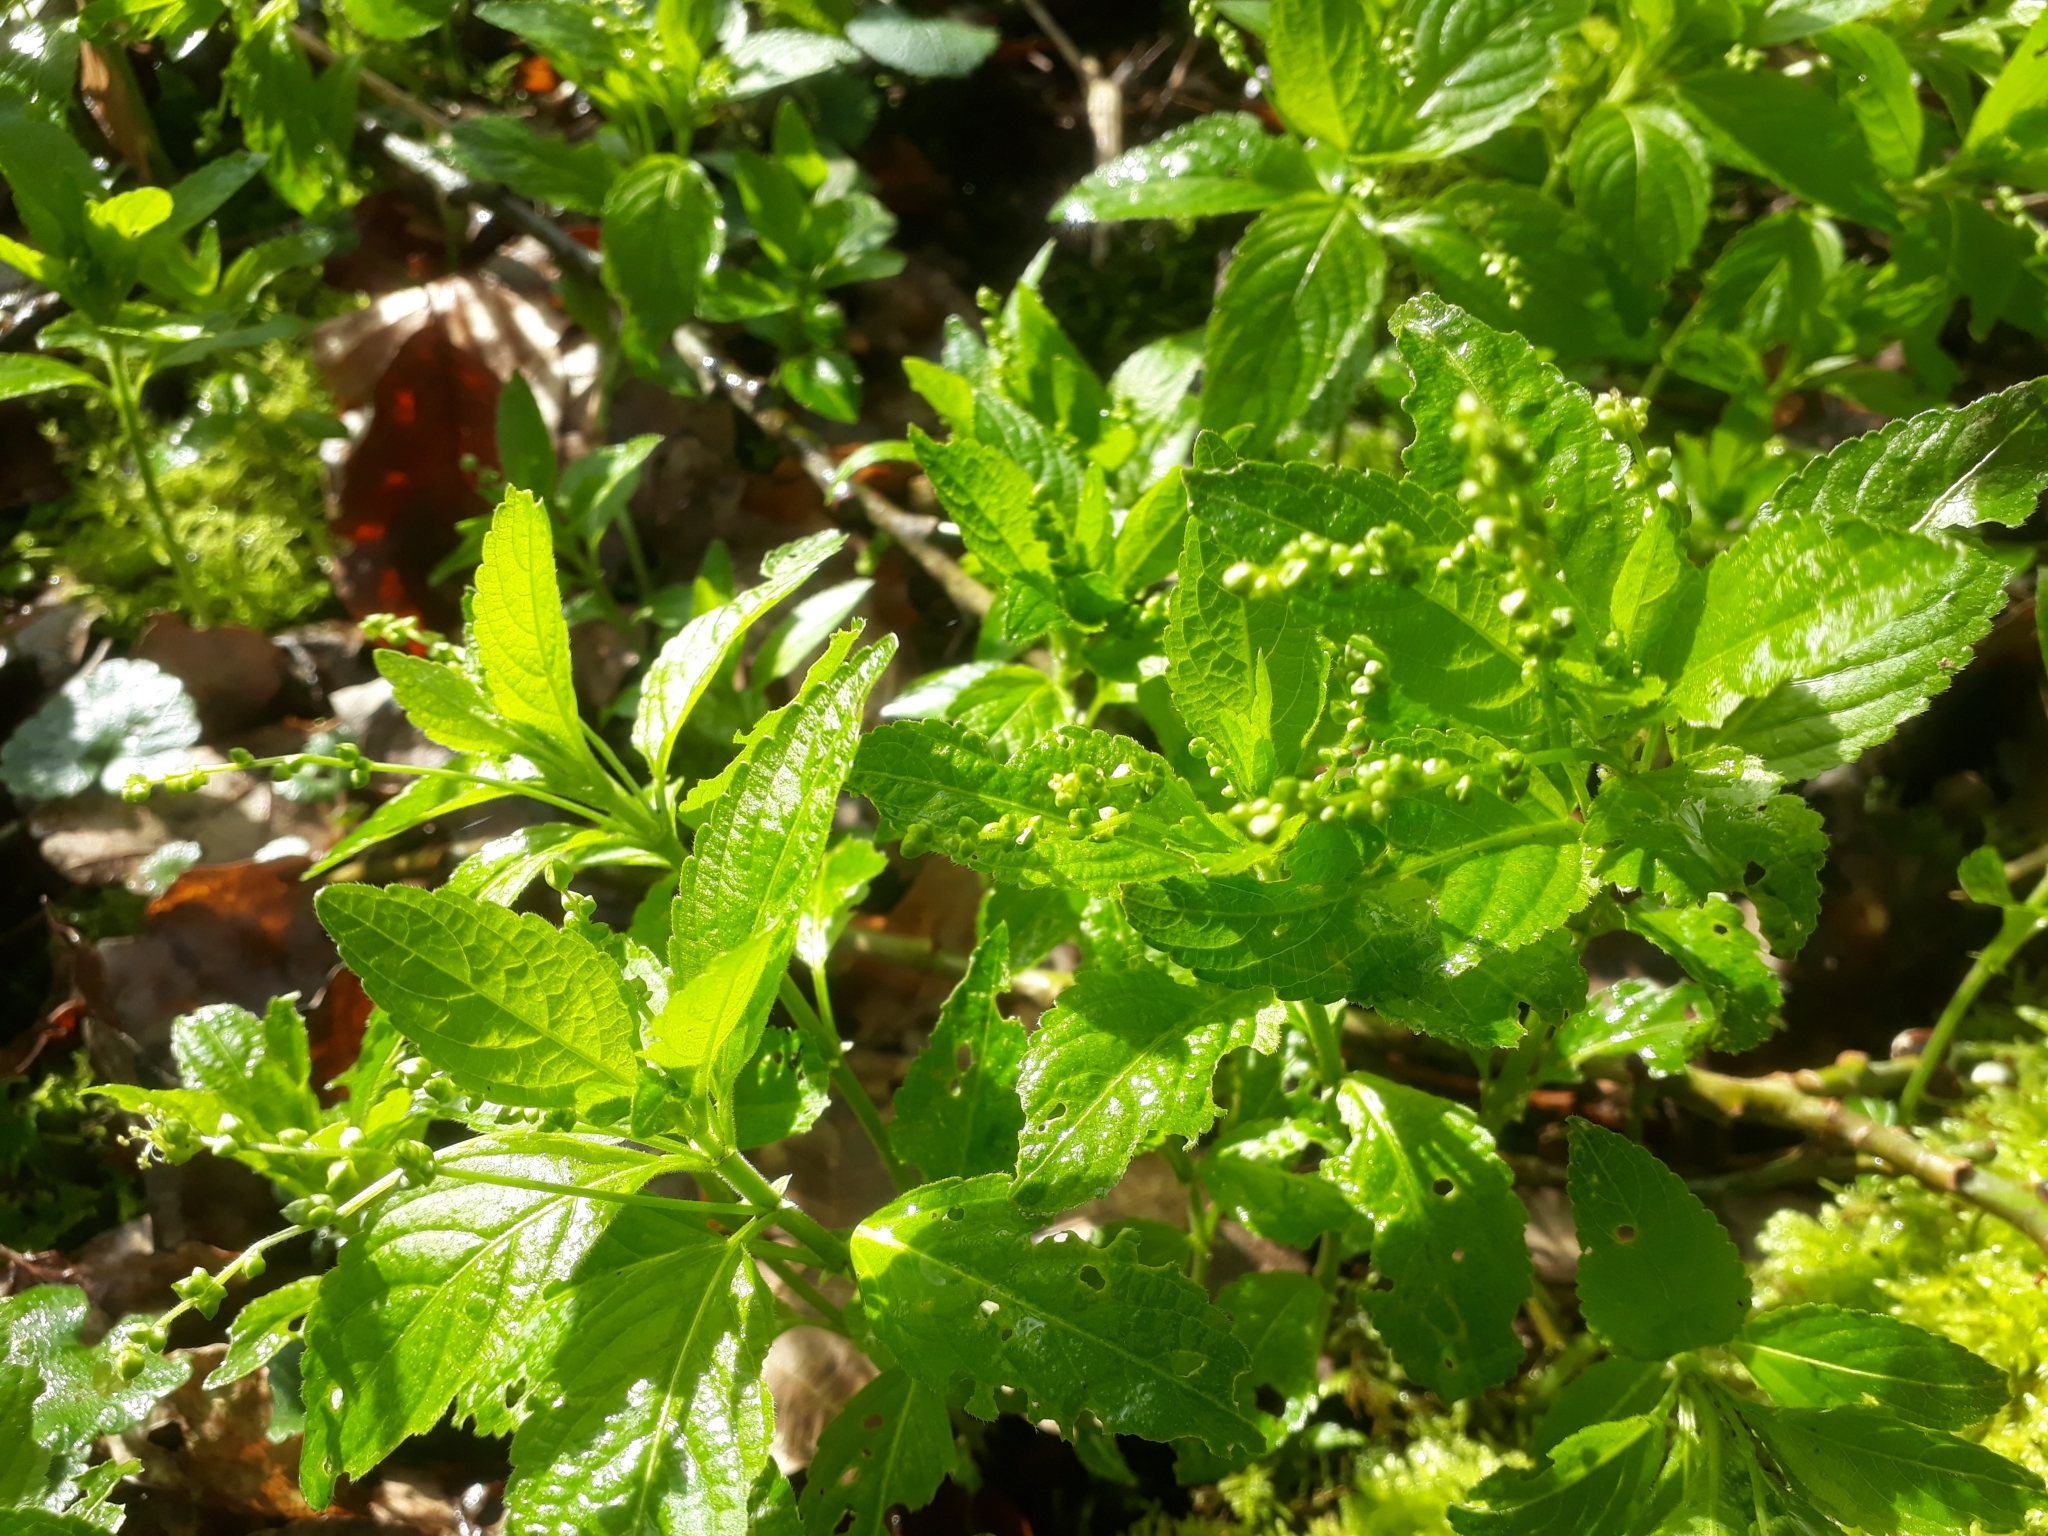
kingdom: Plantae
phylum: Tracheophyta
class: Magnoliopsida
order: Malpighiales
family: Euphorbiaceae
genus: Mercurialis
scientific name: Mercurialis perennis
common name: Dog mercury
